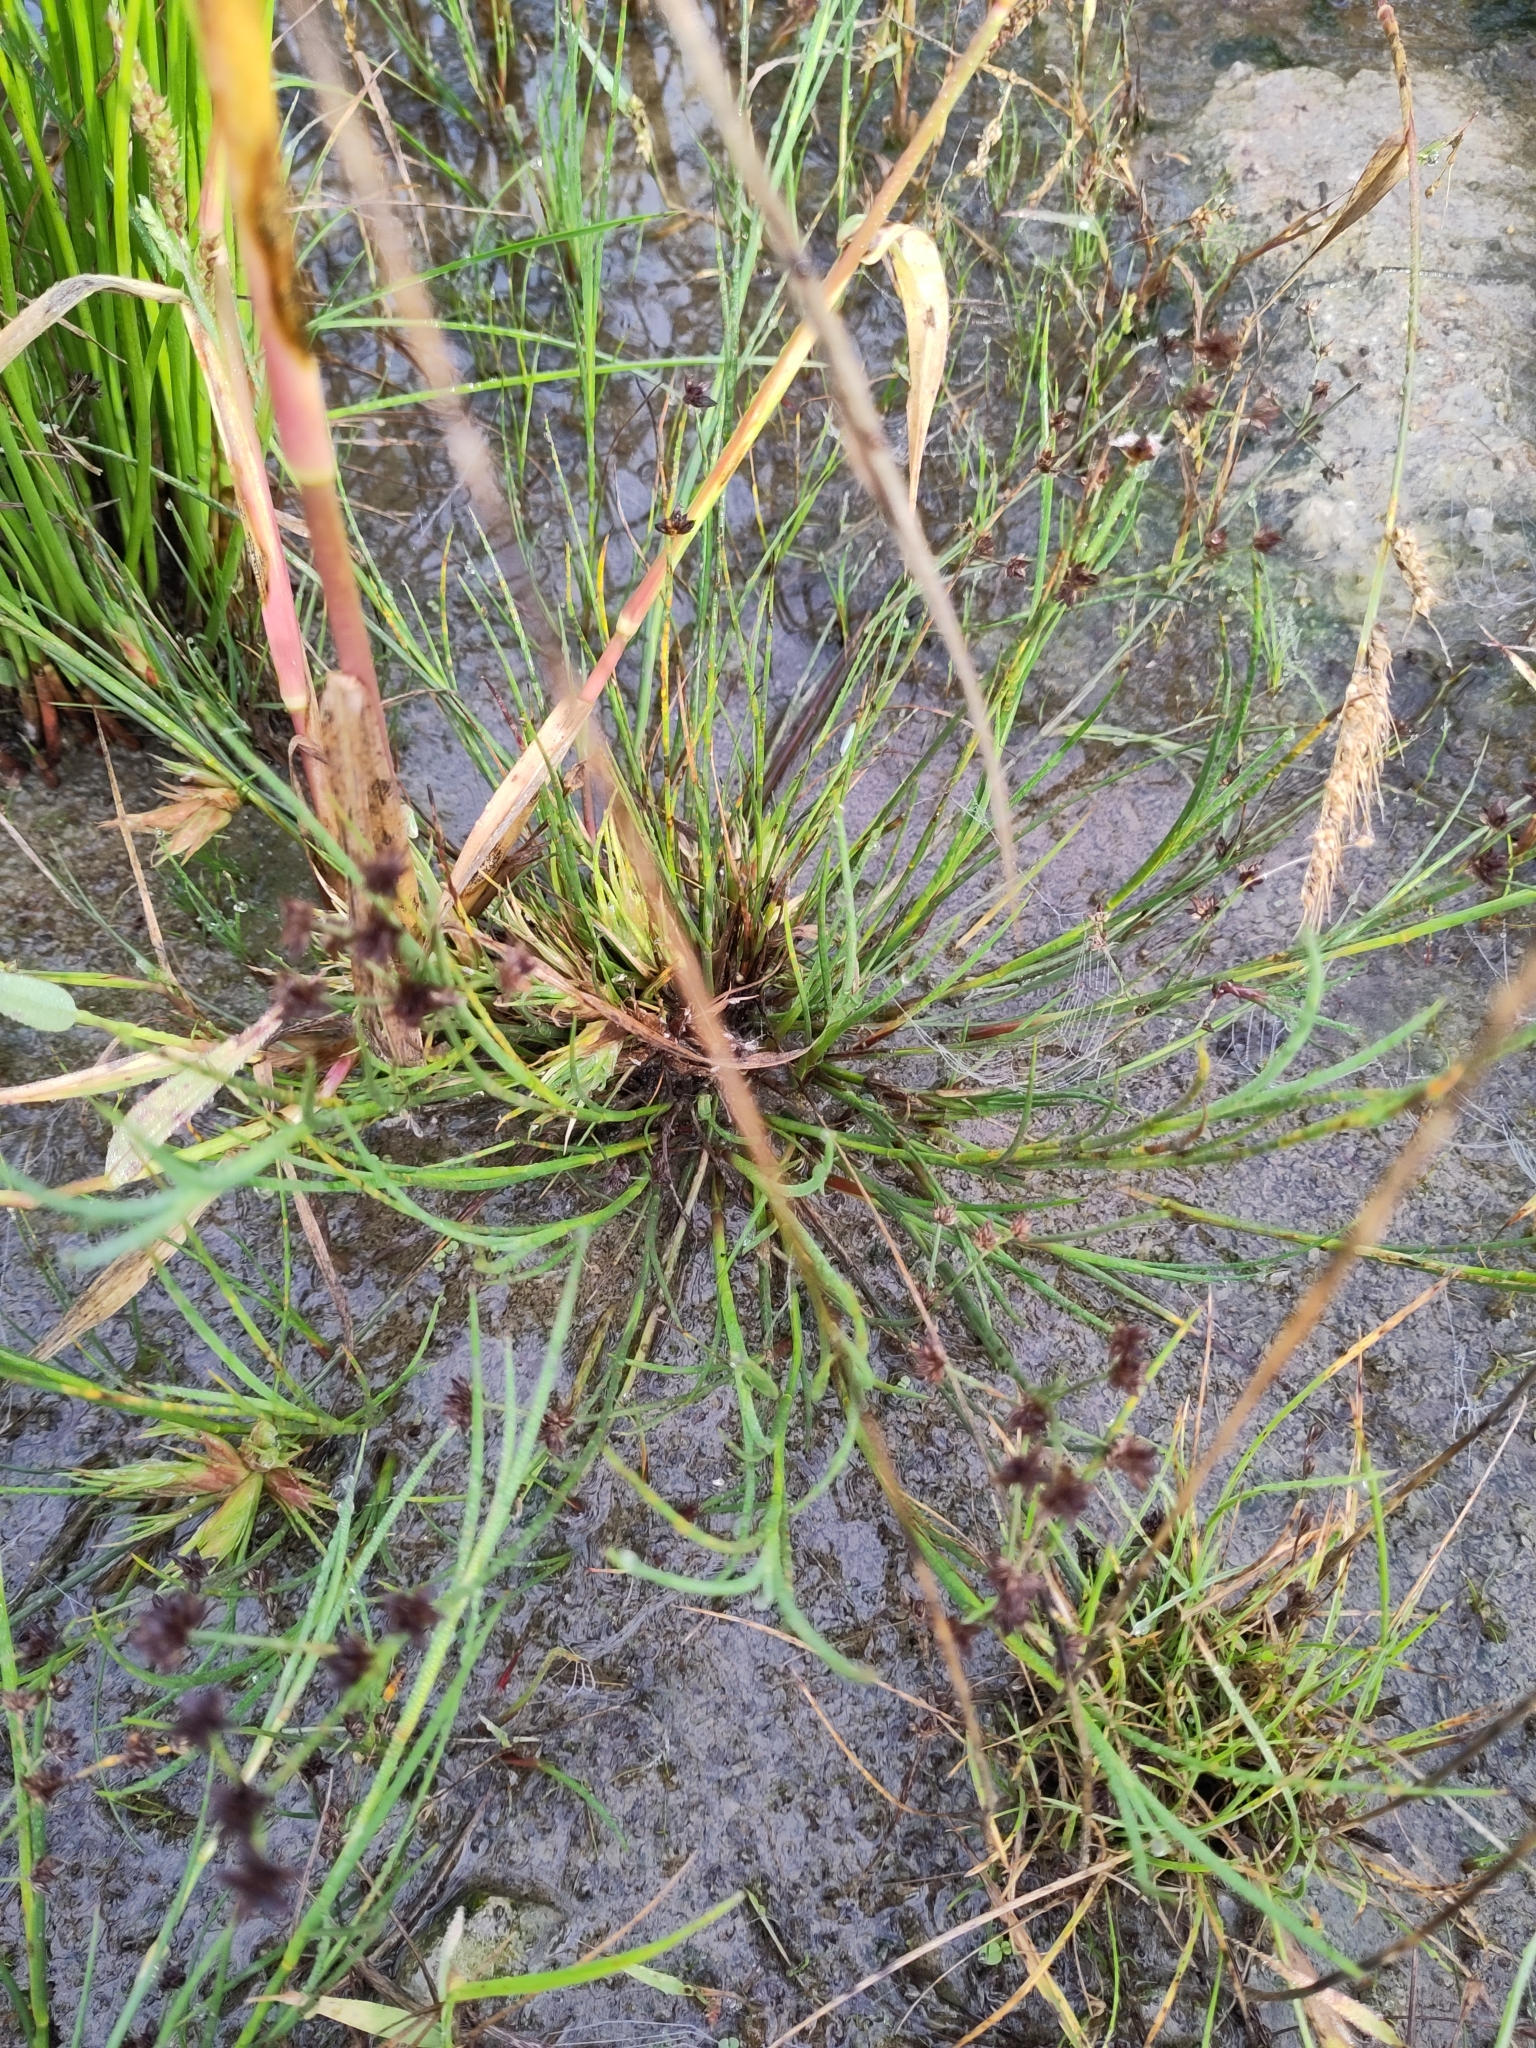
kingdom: Plantae
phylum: Tracheophyta
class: Liliopsida
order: Poales
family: Juncaceae
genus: Juncus
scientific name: Juncus articulatus
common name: Jointed rush
